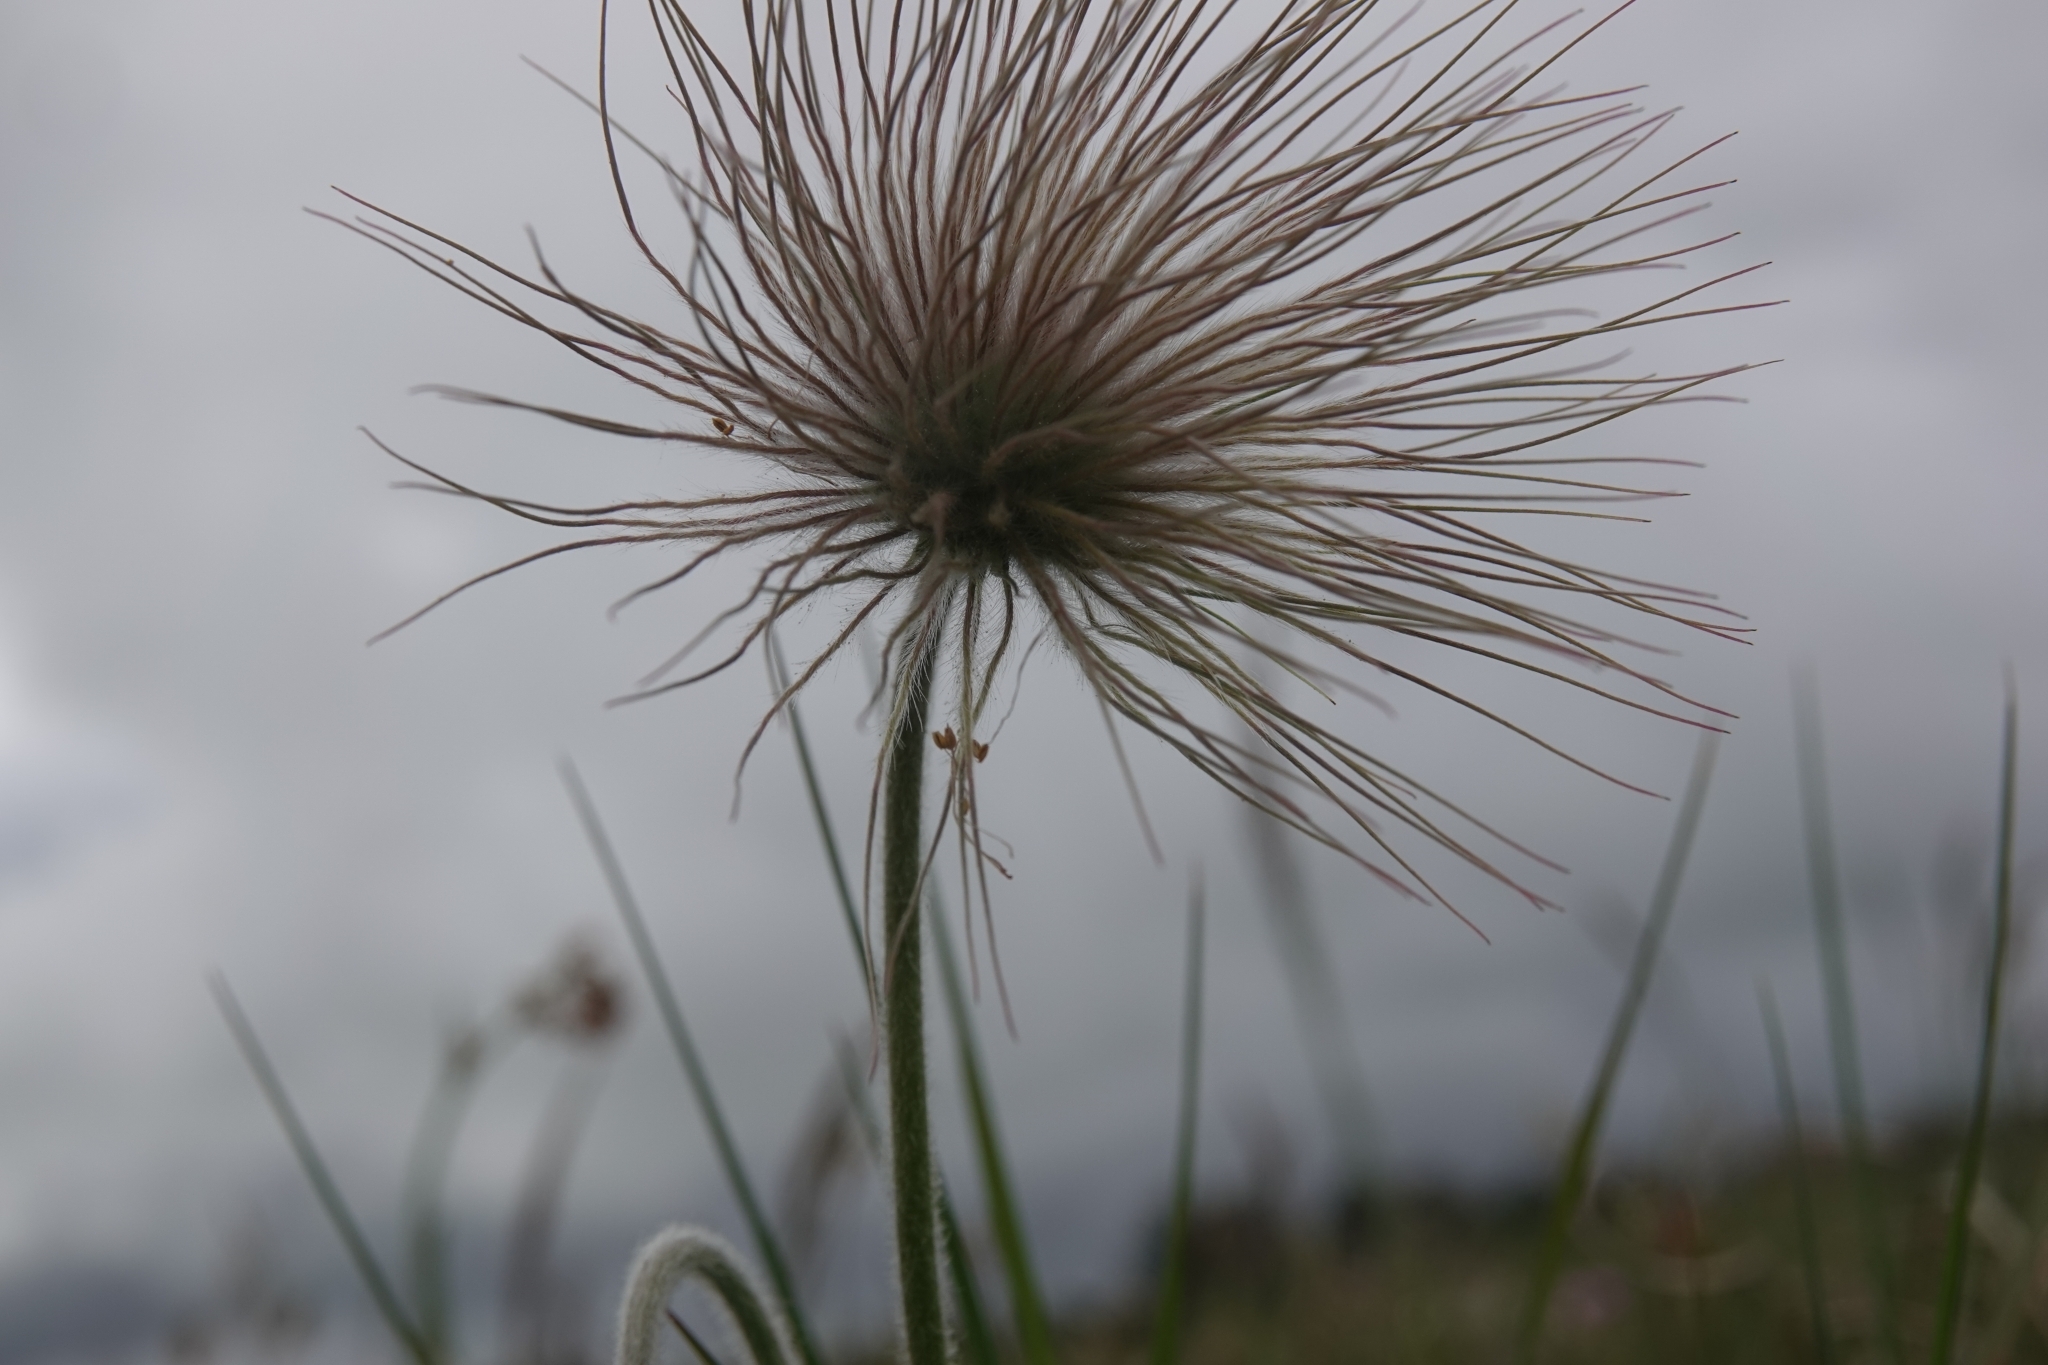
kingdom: Plantae
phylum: Tracheophyta
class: Magnoliopsida
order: Ranunculales
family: Ranunculaceae
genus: Pulsatilla
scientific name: Pulsatilla pratensis
